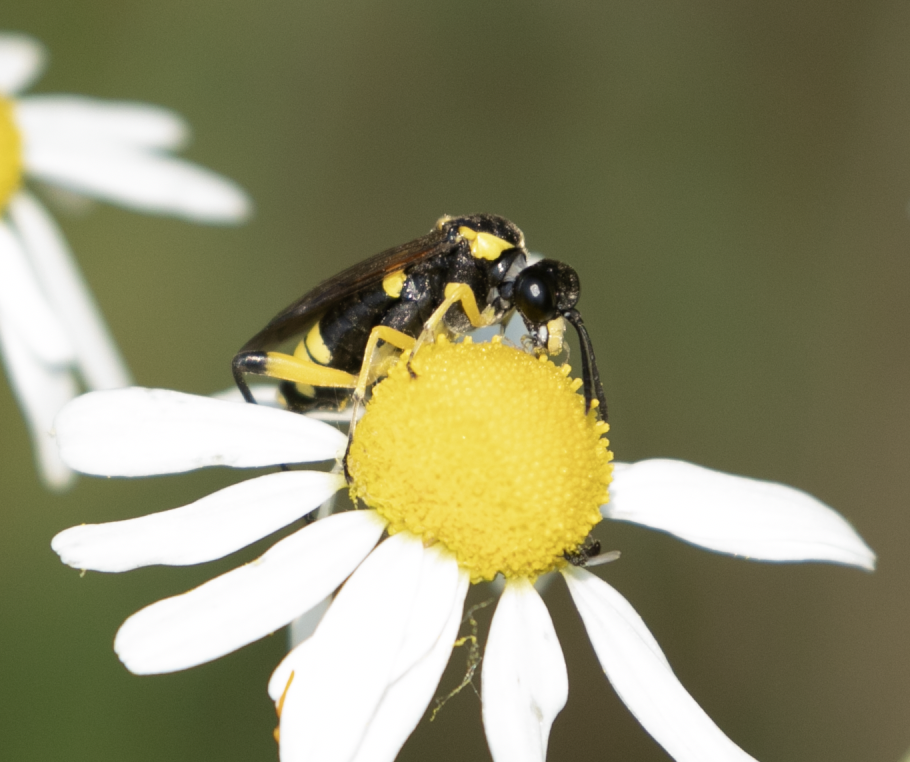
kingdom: Animalia
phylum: Arthropoda
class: Insecta
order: Hymenoptera
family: Tenthredinidae
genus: Macrophya
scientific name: Macrophya montana
